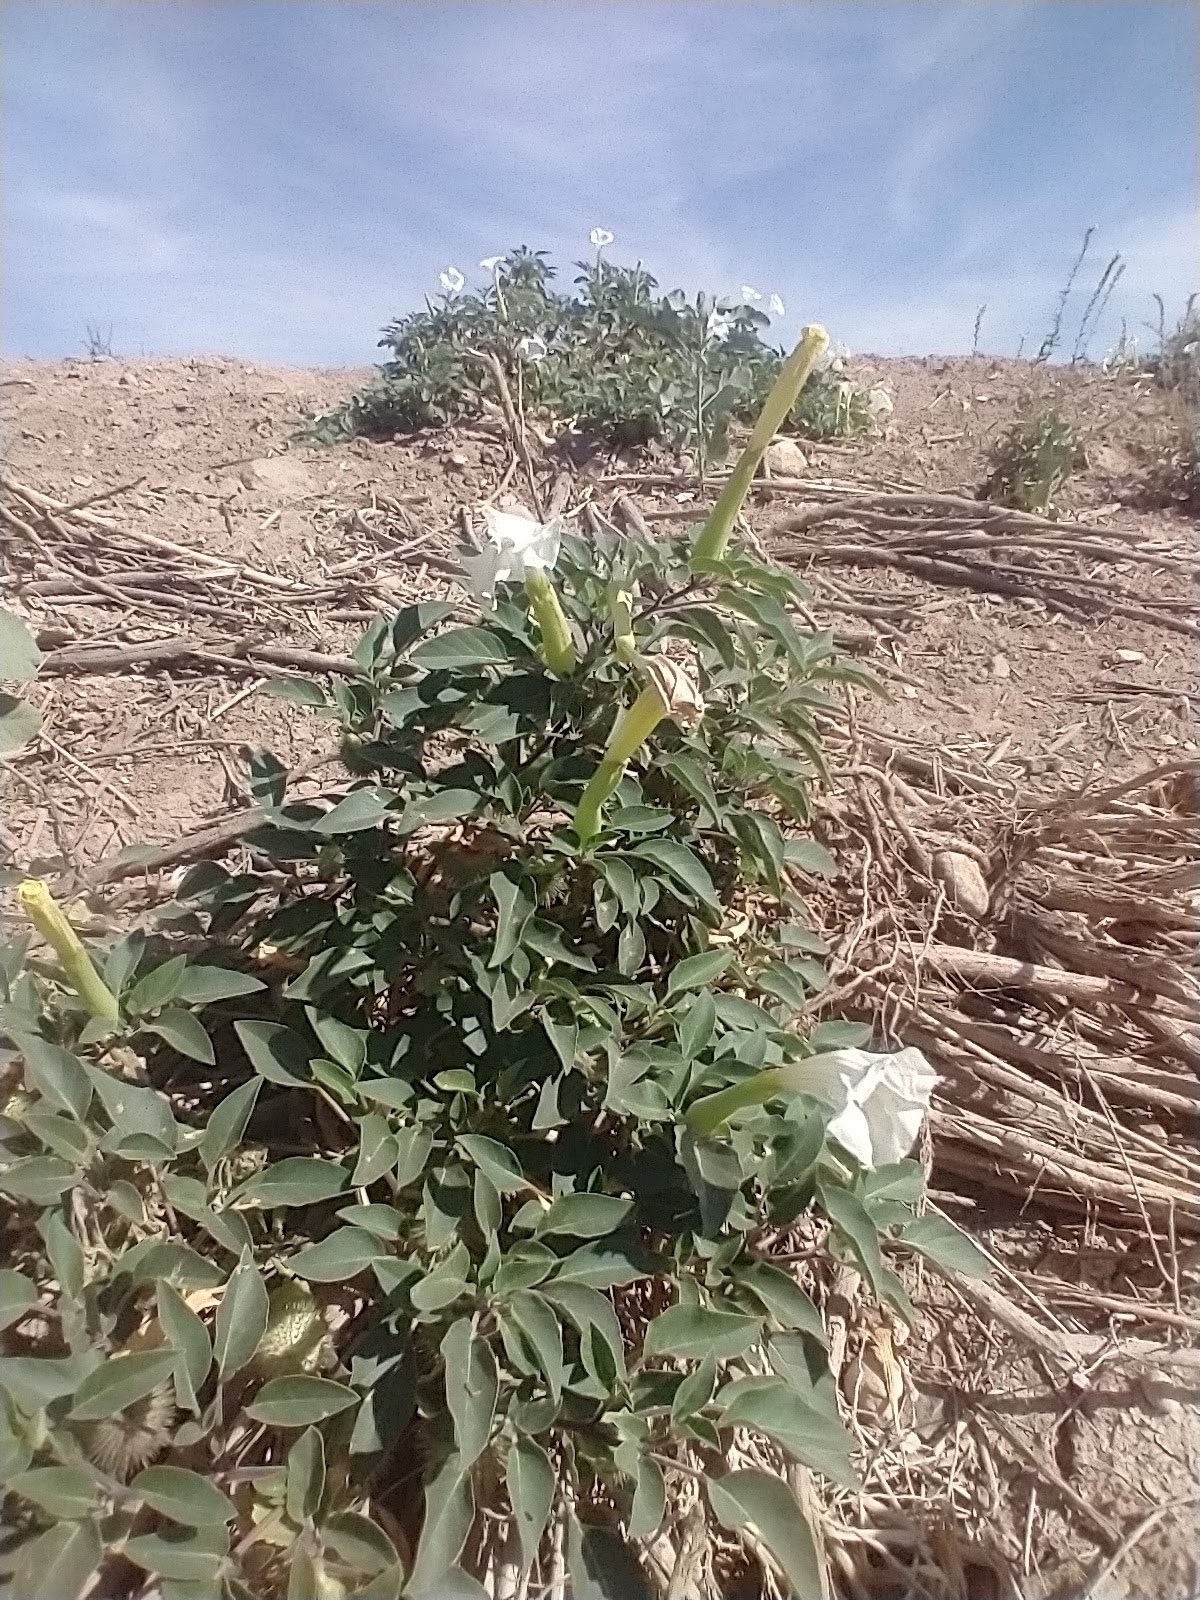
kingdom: Plantae
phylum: Tracheophyta
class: Magnoliopsida
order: Solanales
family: Solanaceae
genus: Datura
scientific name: Datura wrightii
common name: Sacred thorn-apple
